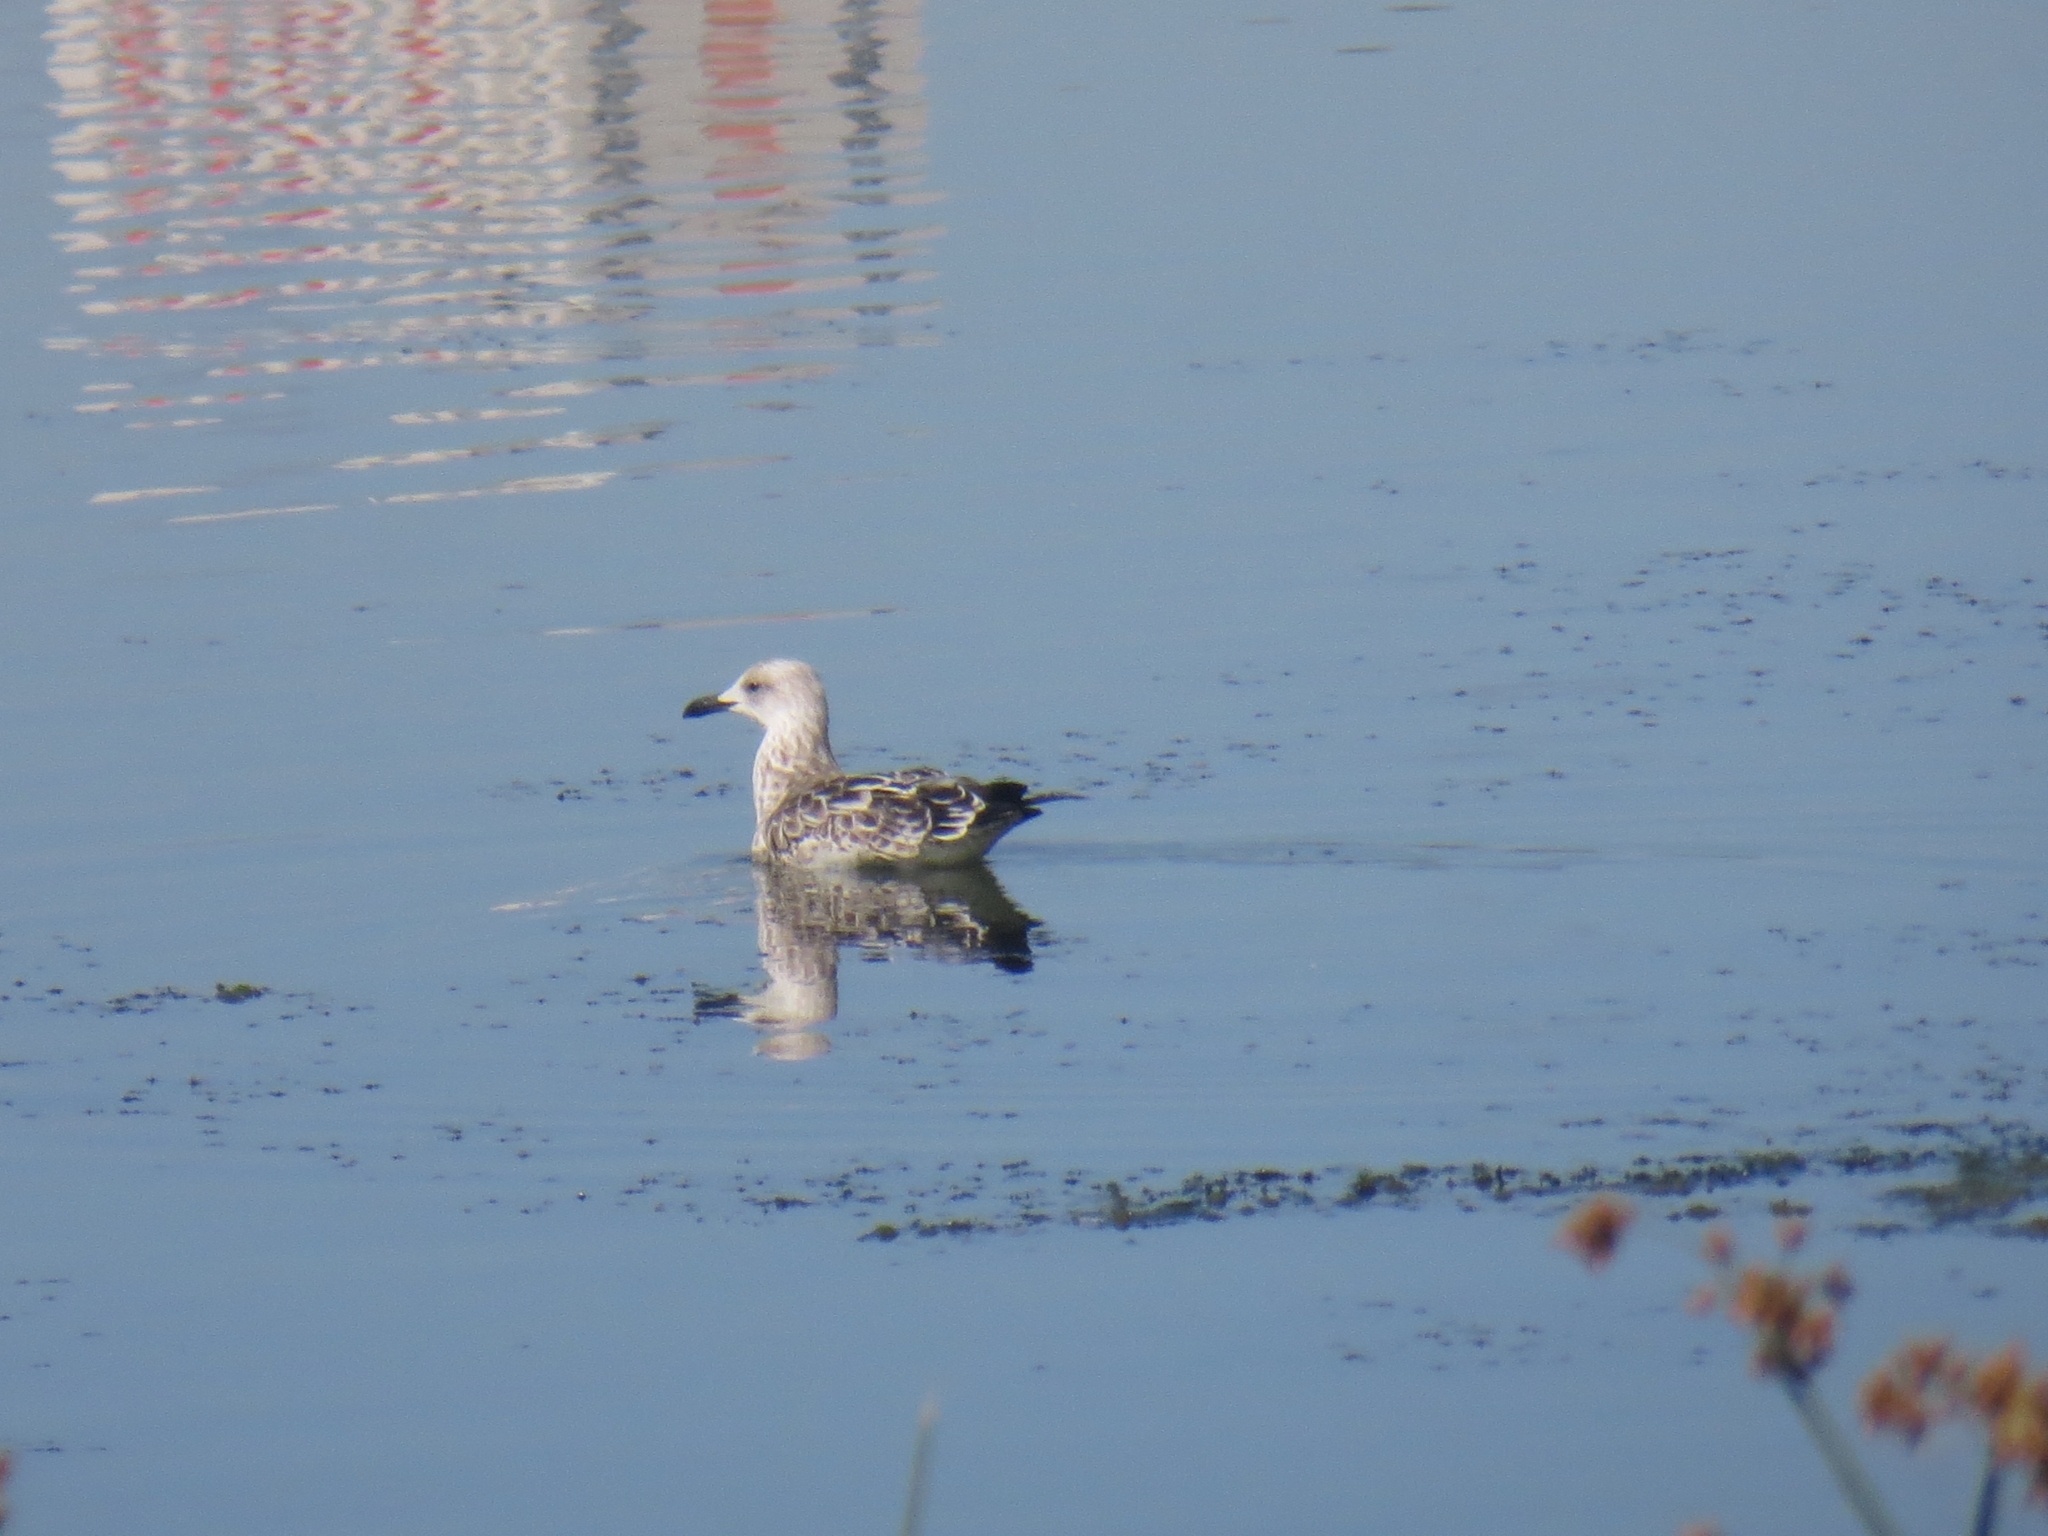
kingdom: Animalia
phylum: Chordata
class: Aves
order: Charadriiformes
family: Laridae
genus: Larus
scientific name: Larus fuscus
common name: Lesser black-backed gull
